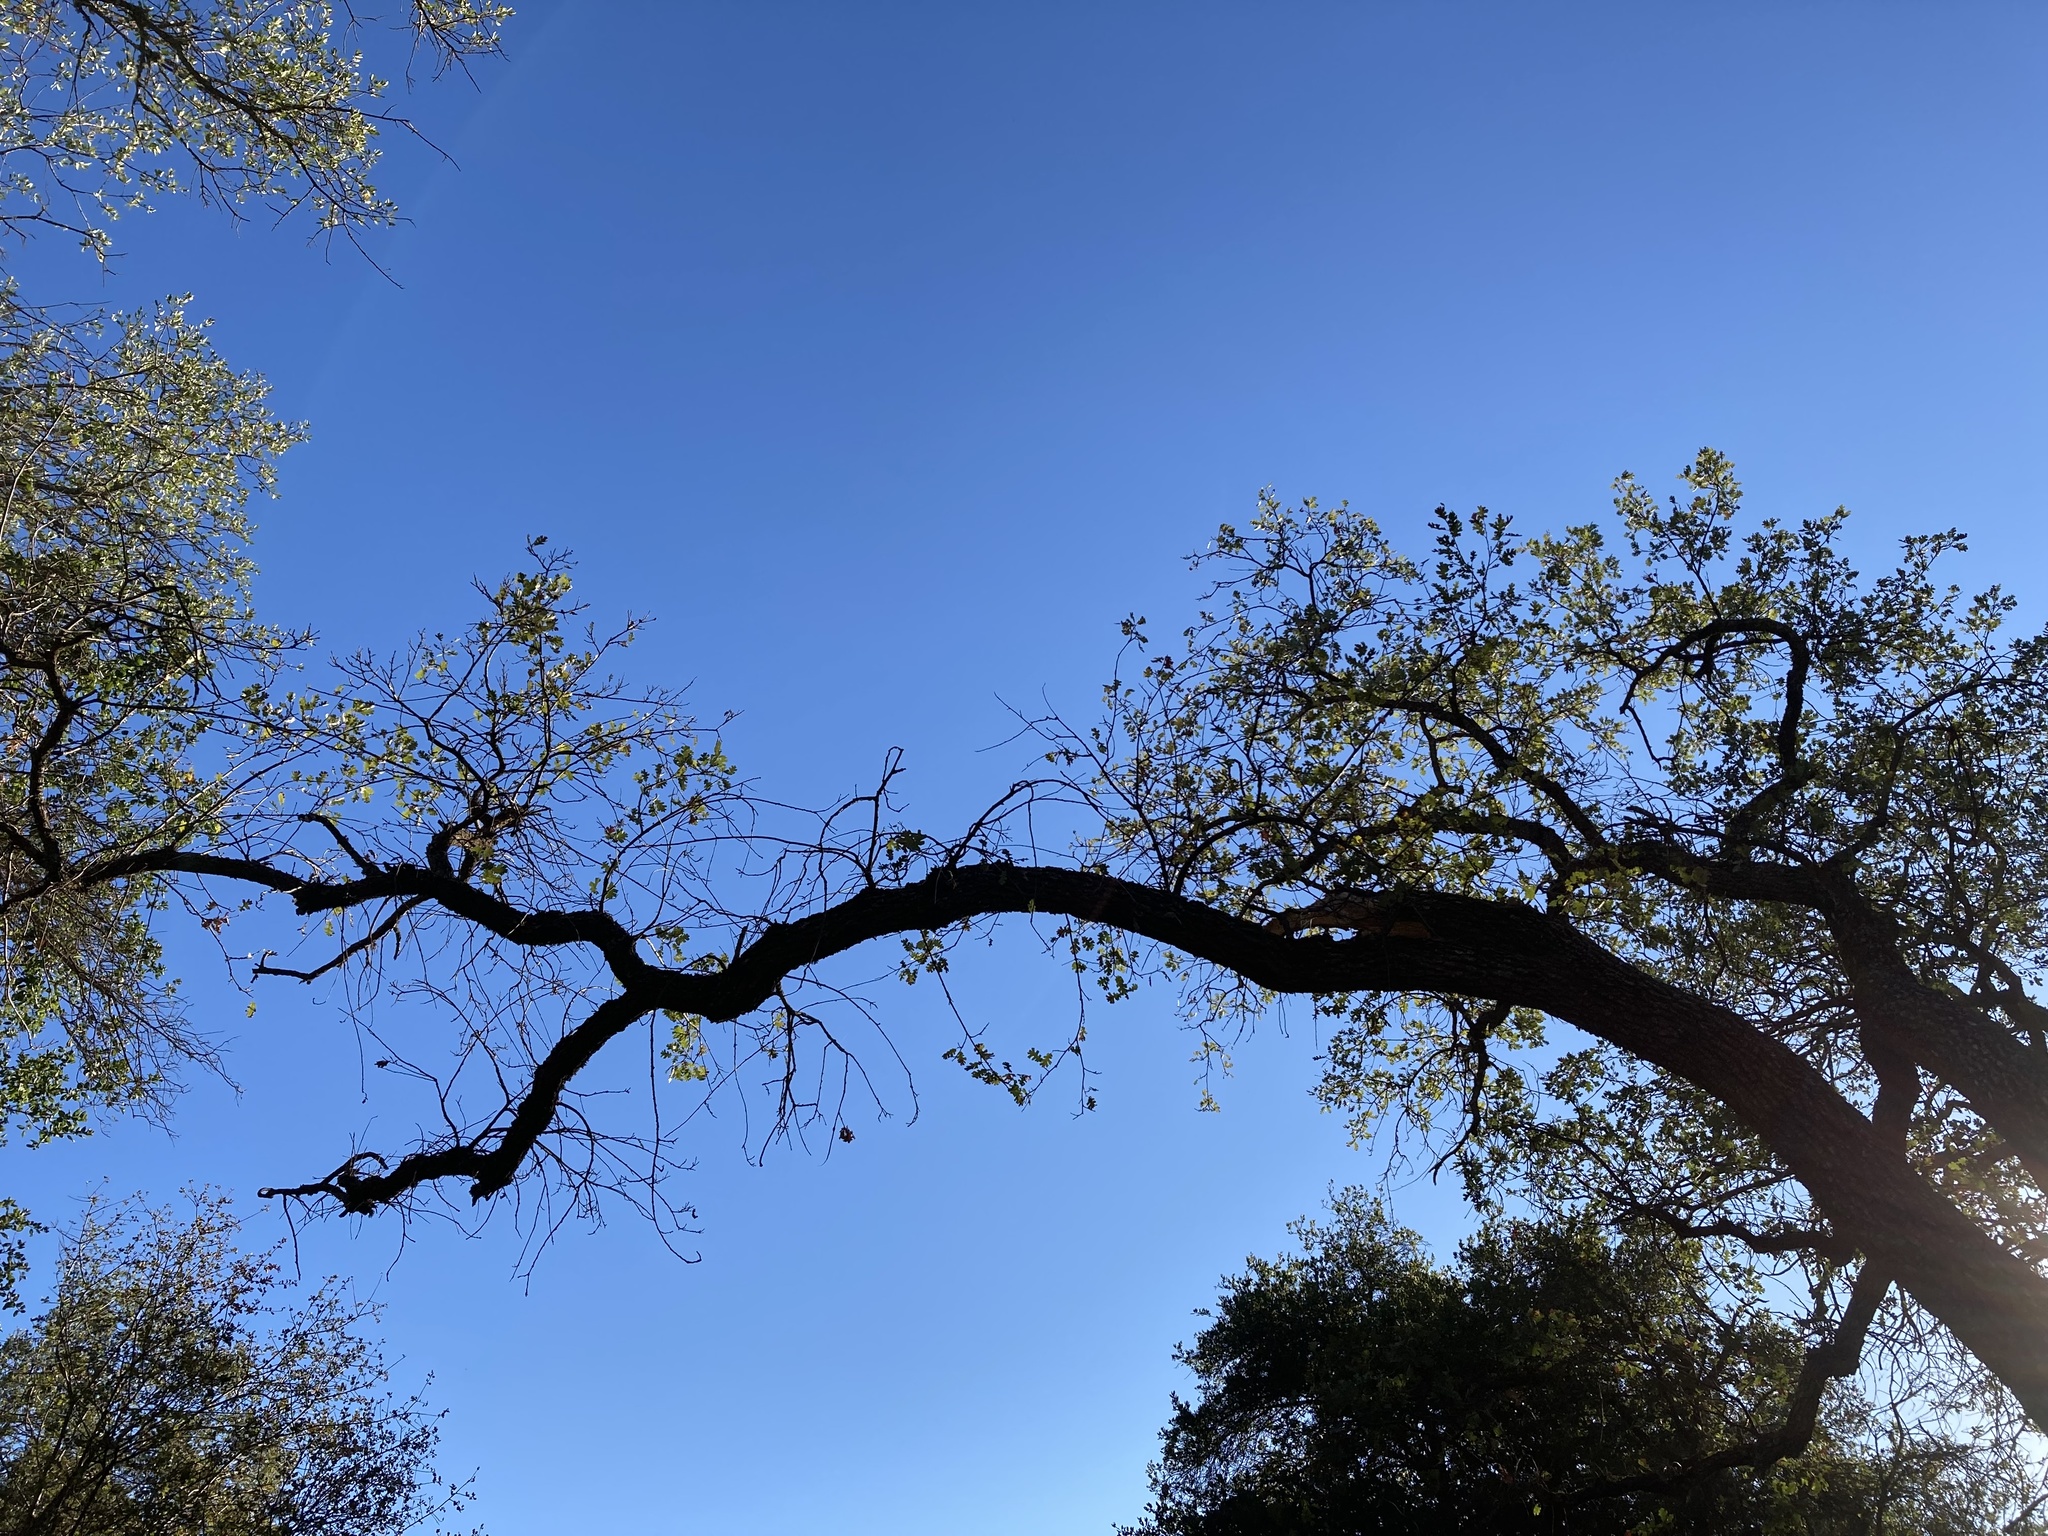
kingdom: Plantae
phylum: Tracheophyta
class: Magnoliopsida
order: Fagales
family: Fagaceae
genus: Quercus
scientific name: Quercus lobata
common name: Valley oak
